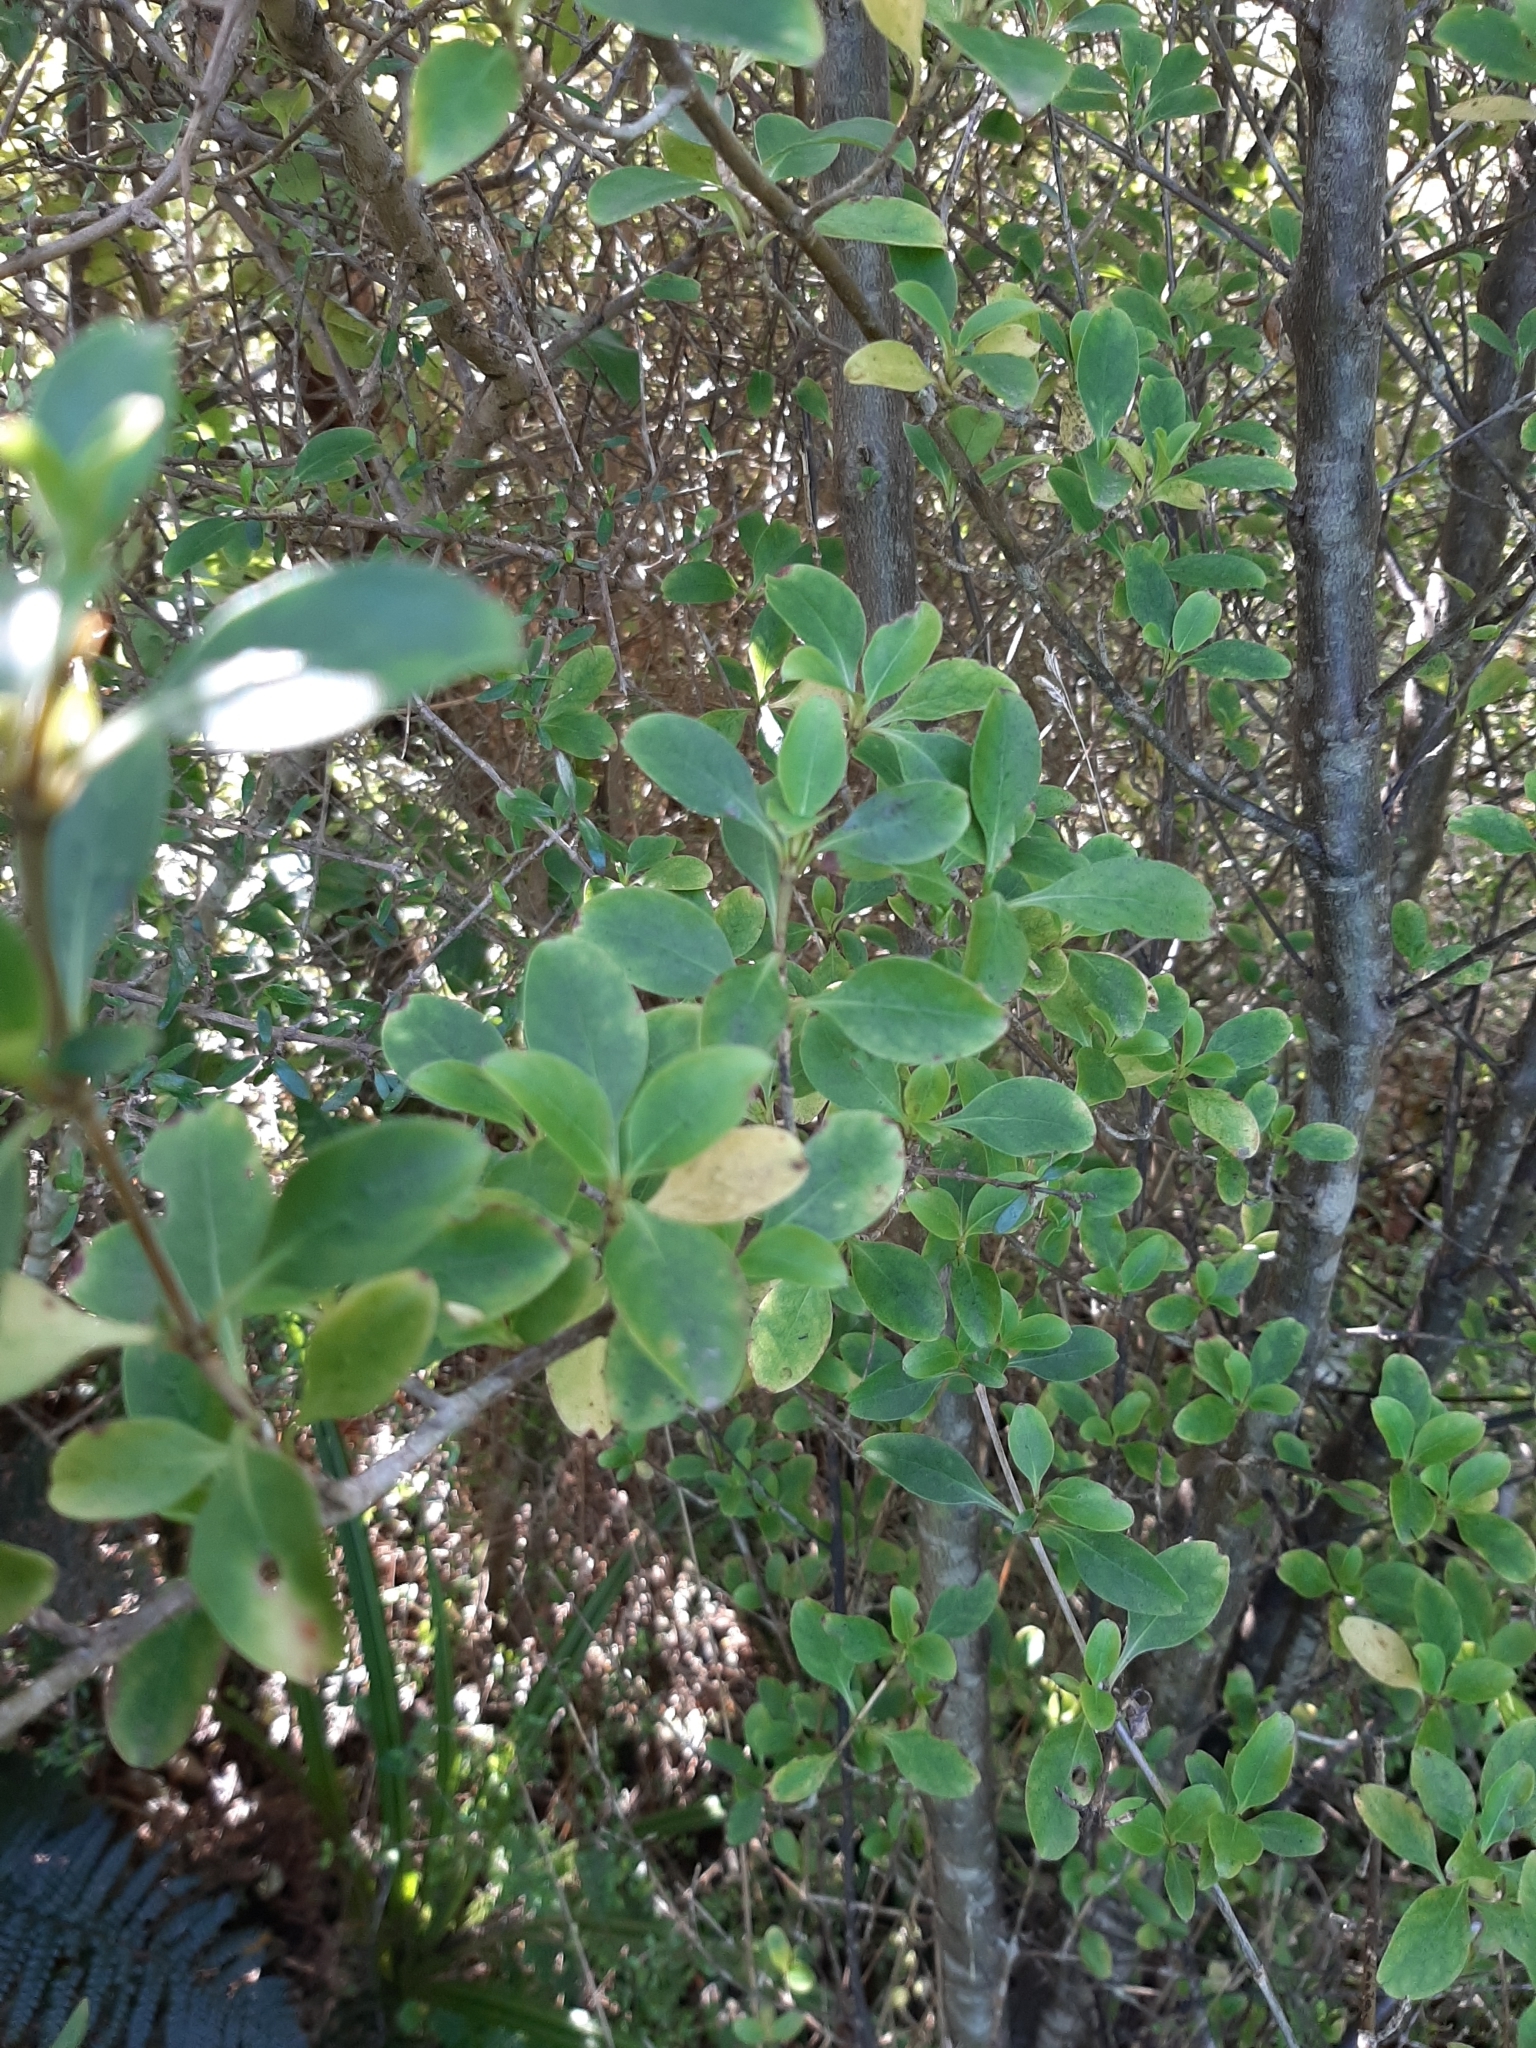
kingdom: Plantae
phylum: Tracheophyta
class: Magnoliopsida
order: Gentianales
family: Rubiaceae
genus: Coprosma
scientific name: Coprosma foetidissima
